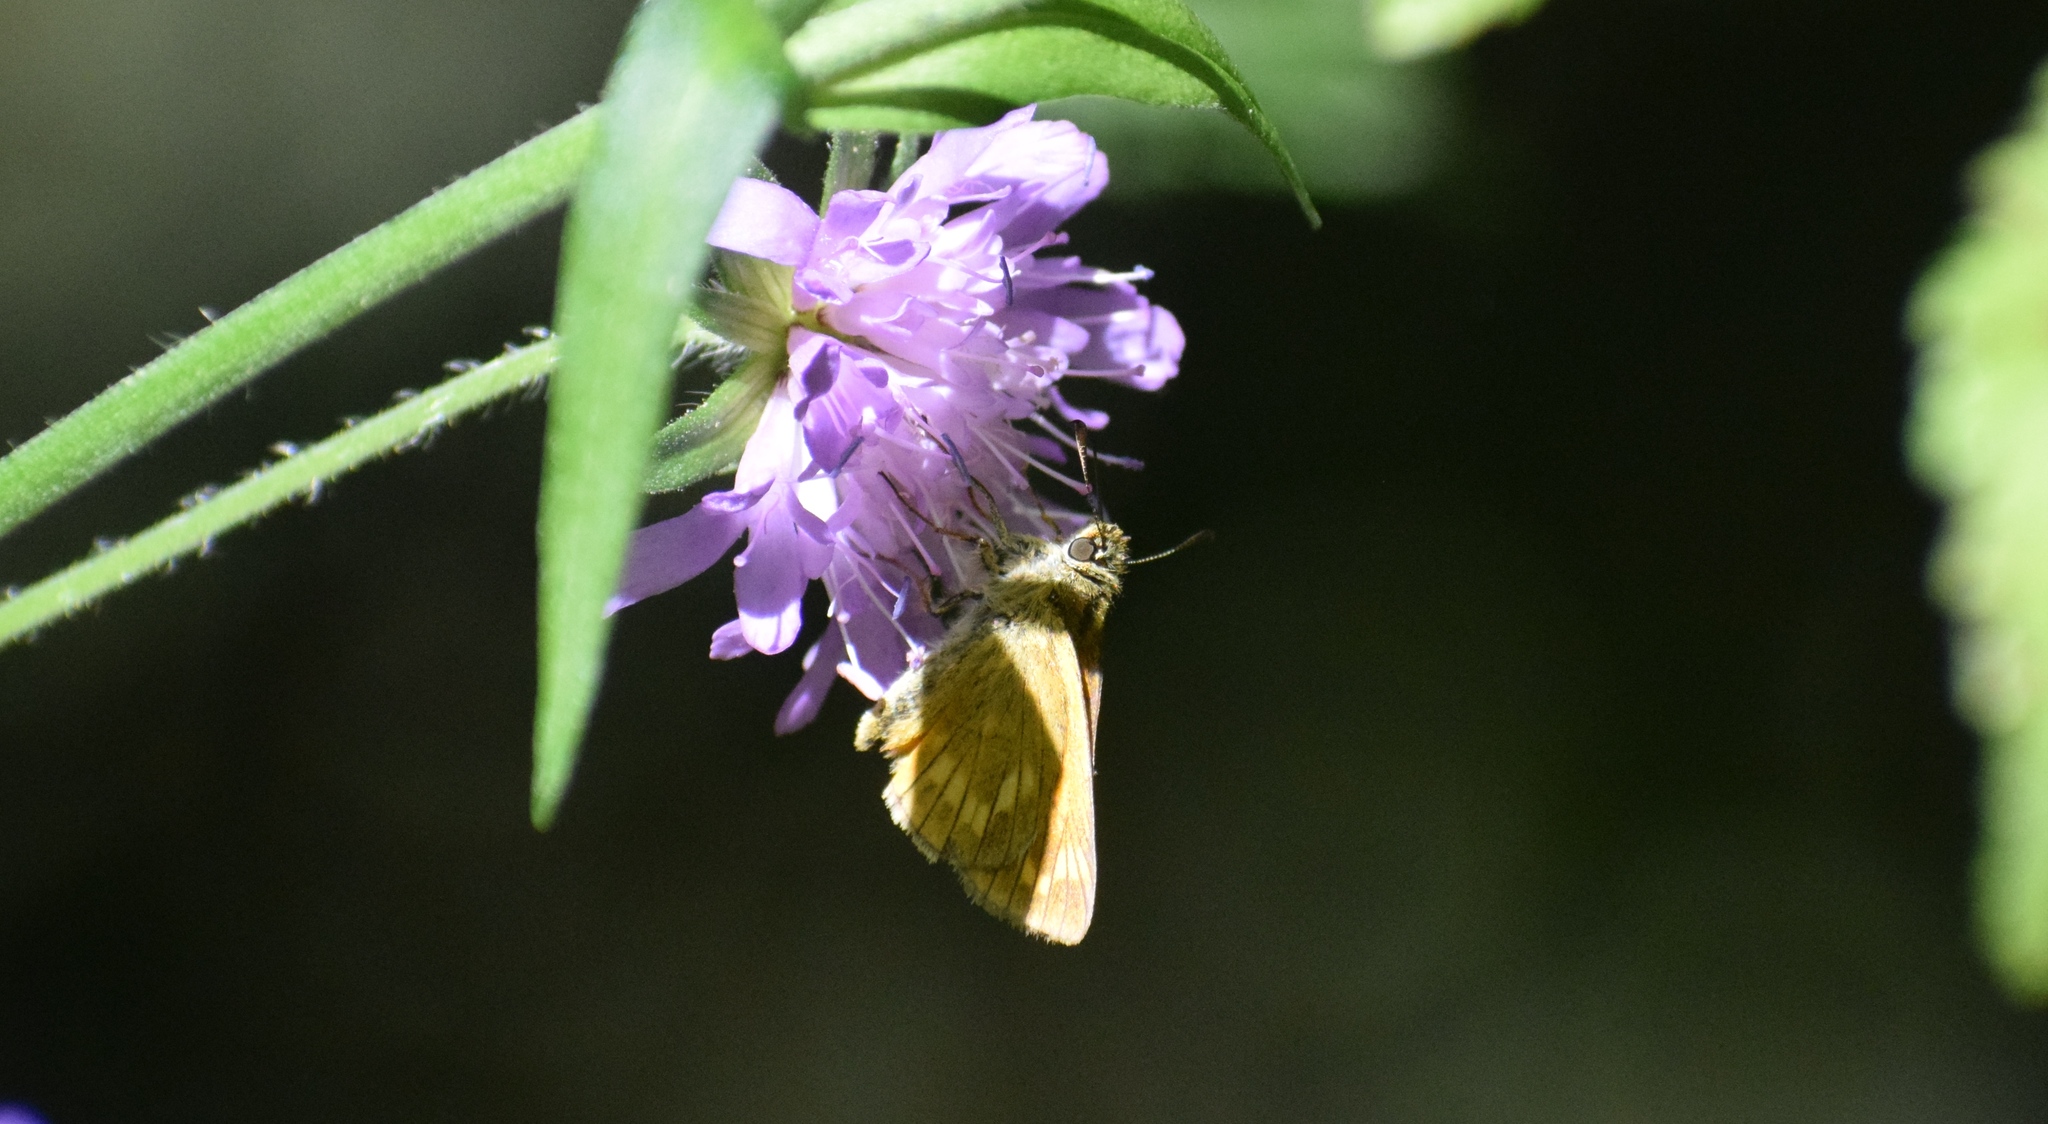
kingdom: Animalia
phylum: Arthropoda
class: Insecta
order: Lepidoptera
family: Hesperiidae
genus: Ochlodes
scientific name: Ochlodes venata
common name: Large skipper
